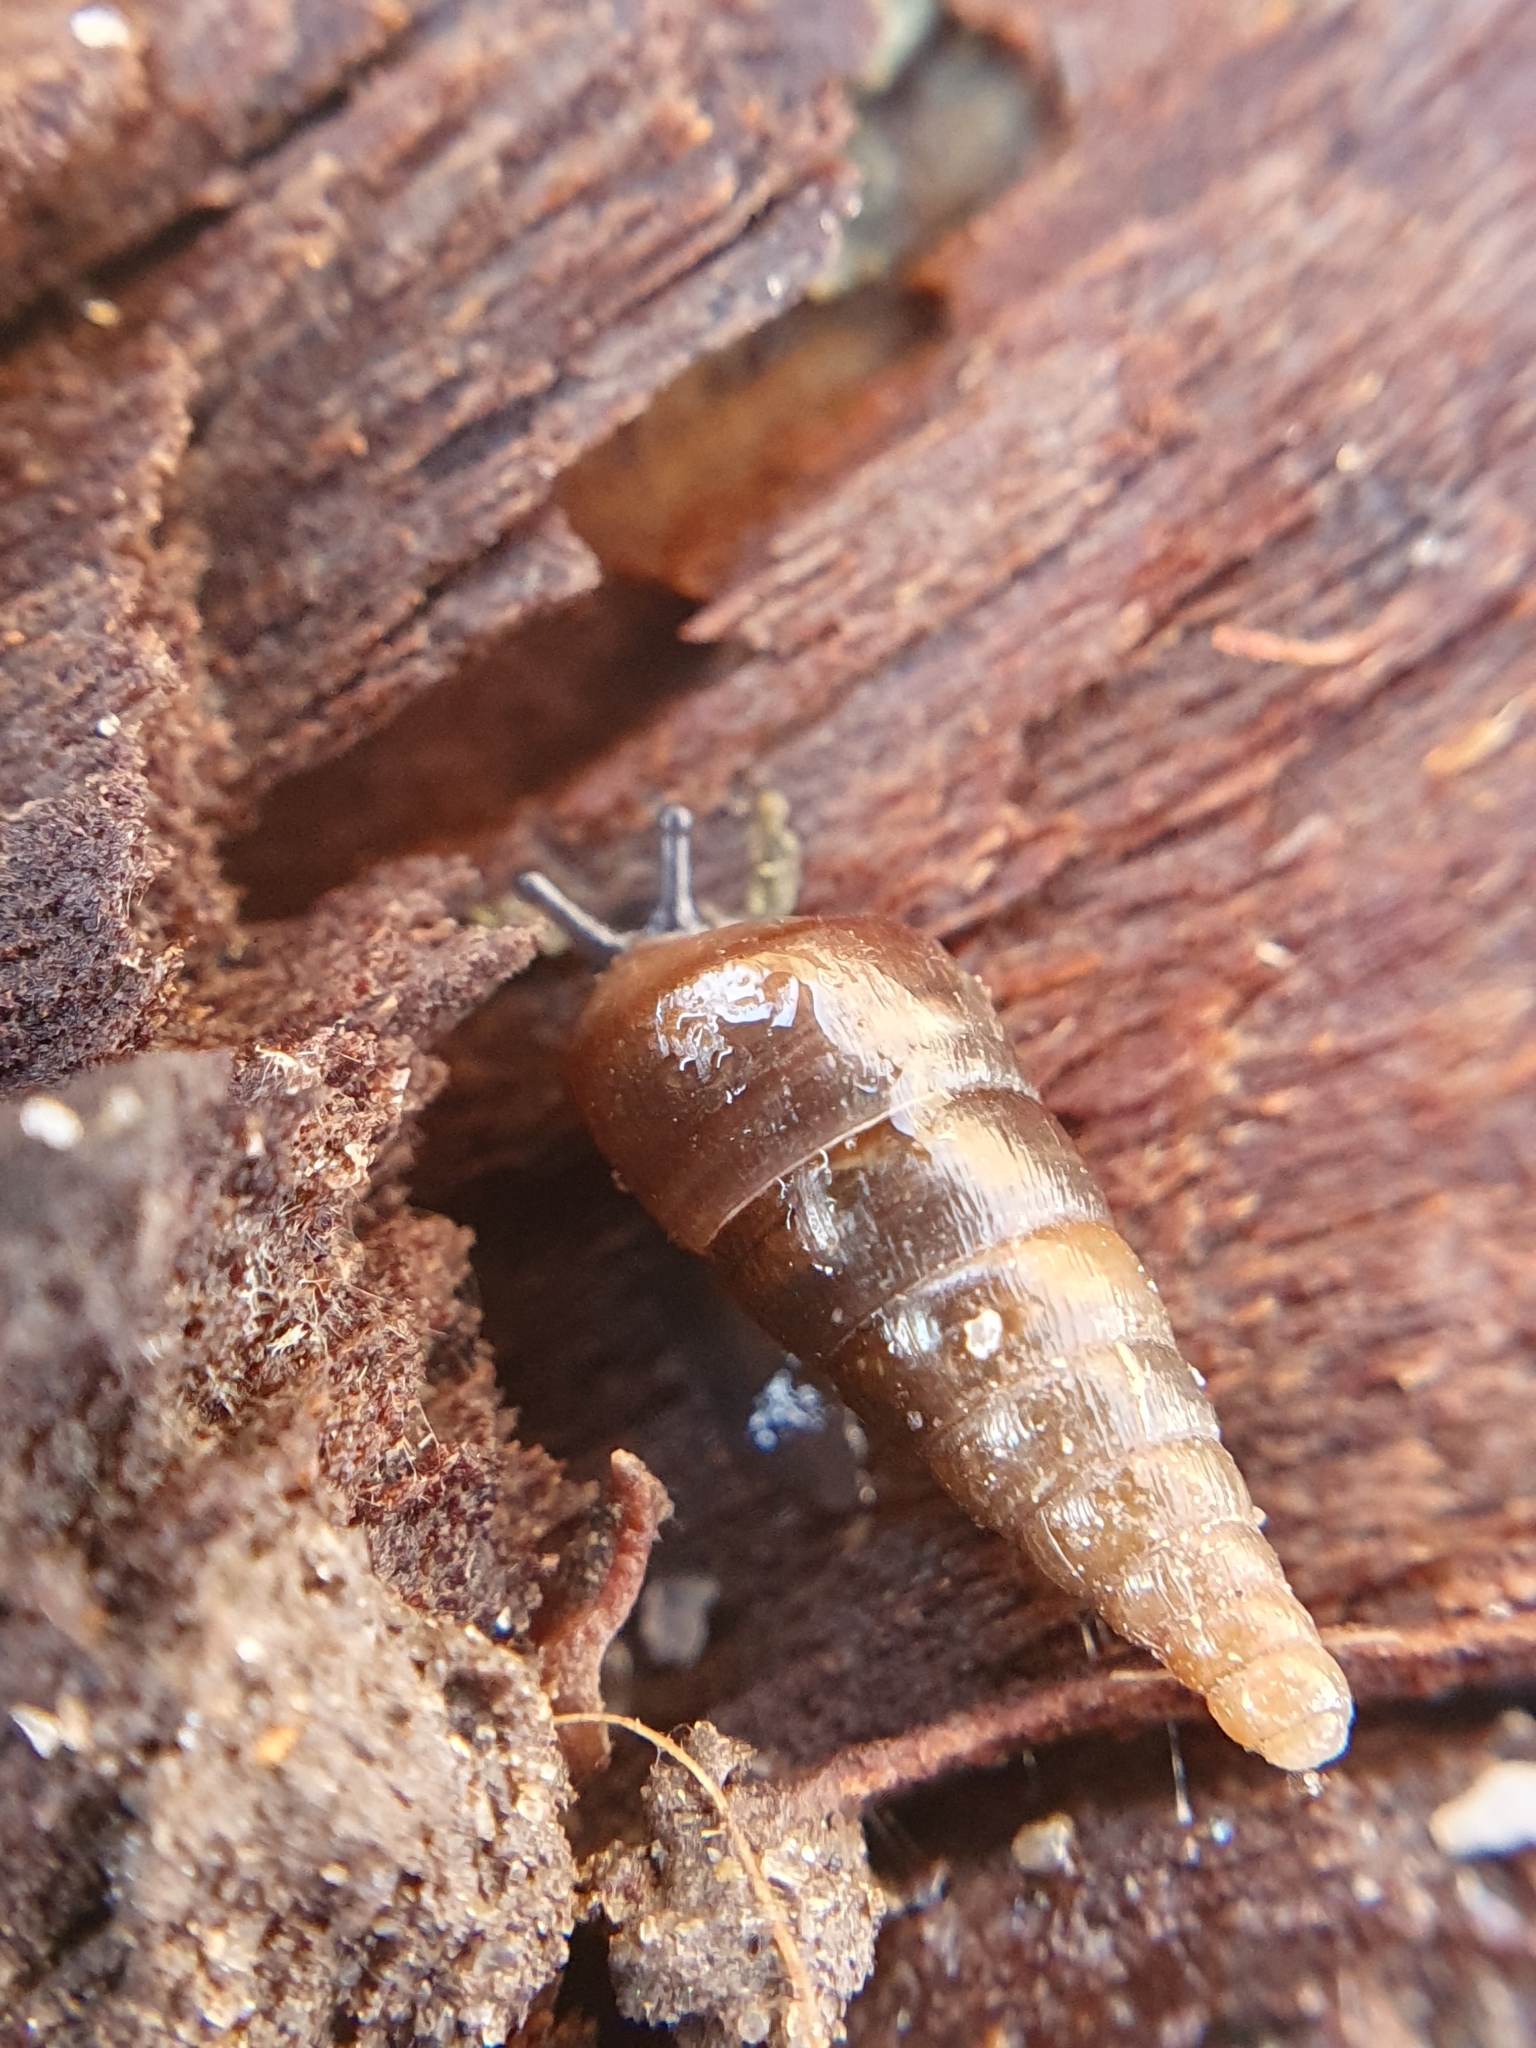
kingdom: Animalia
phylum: Mollusca
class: Gastropoda
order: Stylommatophora
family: Clausiliidae
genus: Cochlodina
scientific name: Cochlodina laminata
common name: Plaited door snail
